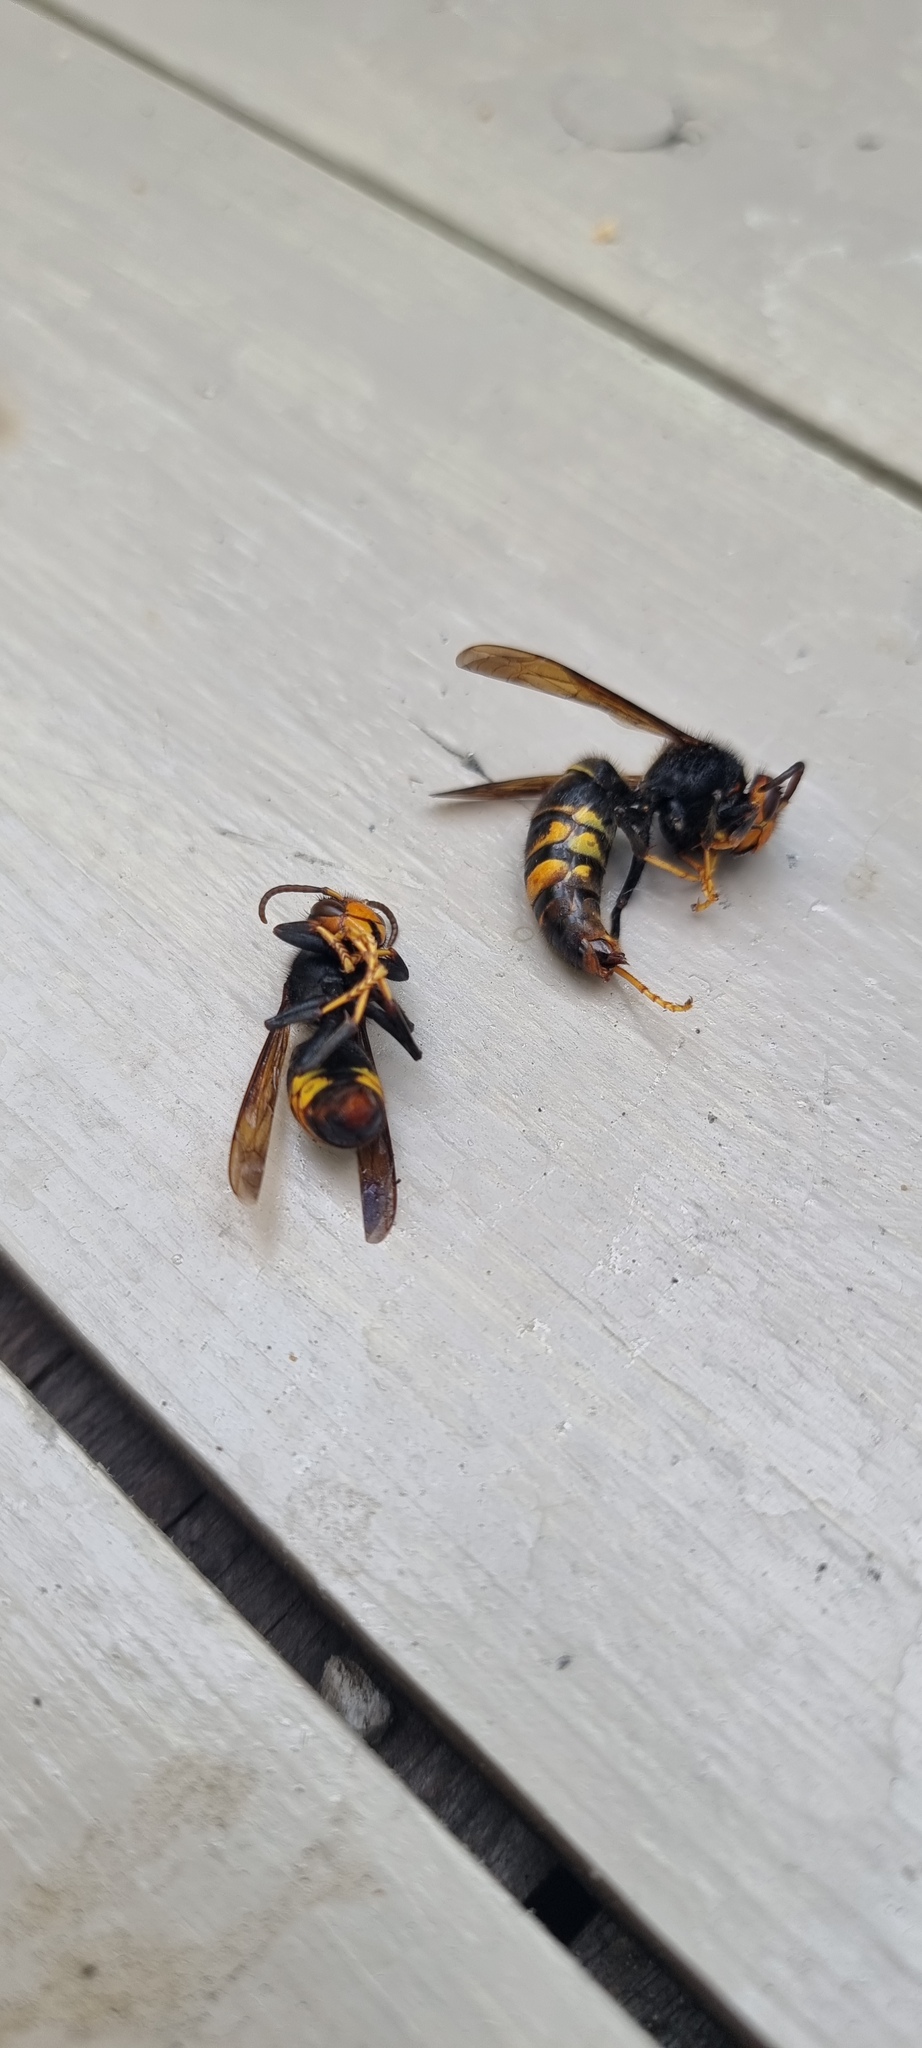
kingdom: Animalia
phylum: Arthropoda
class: Insecta
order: Hymenoptera
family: Vespidae
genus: Vespa
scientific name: Vespa velutina
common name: Asian hornet
